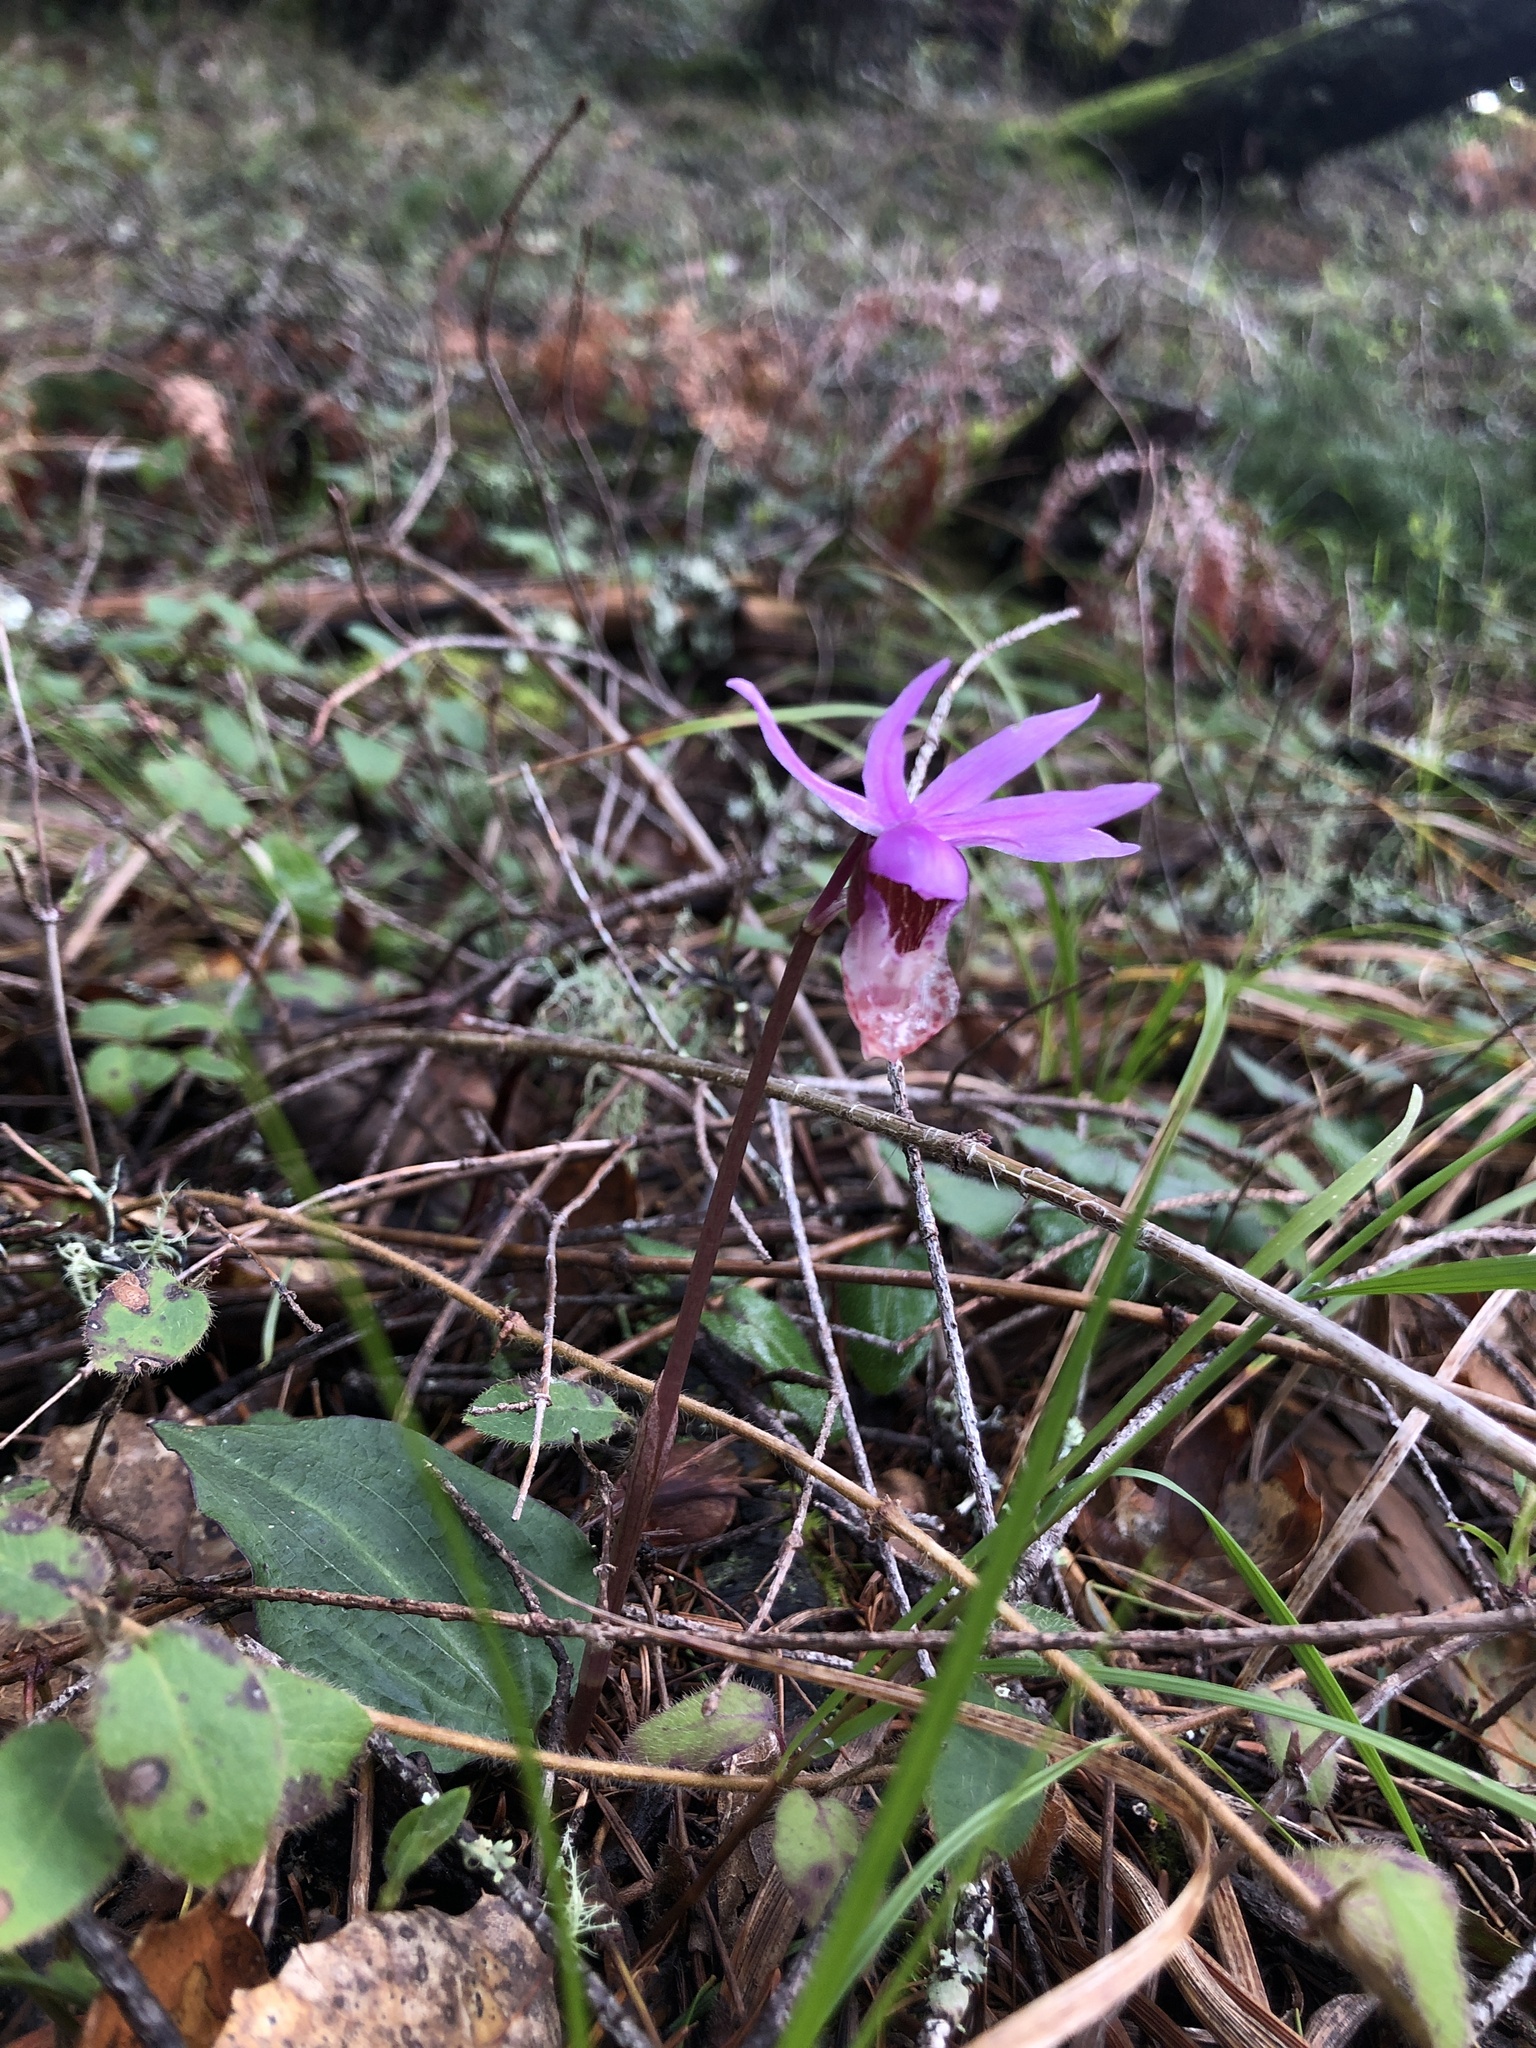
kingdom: Plantae
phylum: Tracheophyta
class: Liliopsida
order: Asparagales
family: Orchidaceae
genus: Calypso
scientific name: Calypso bulbosa
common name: Calypso
